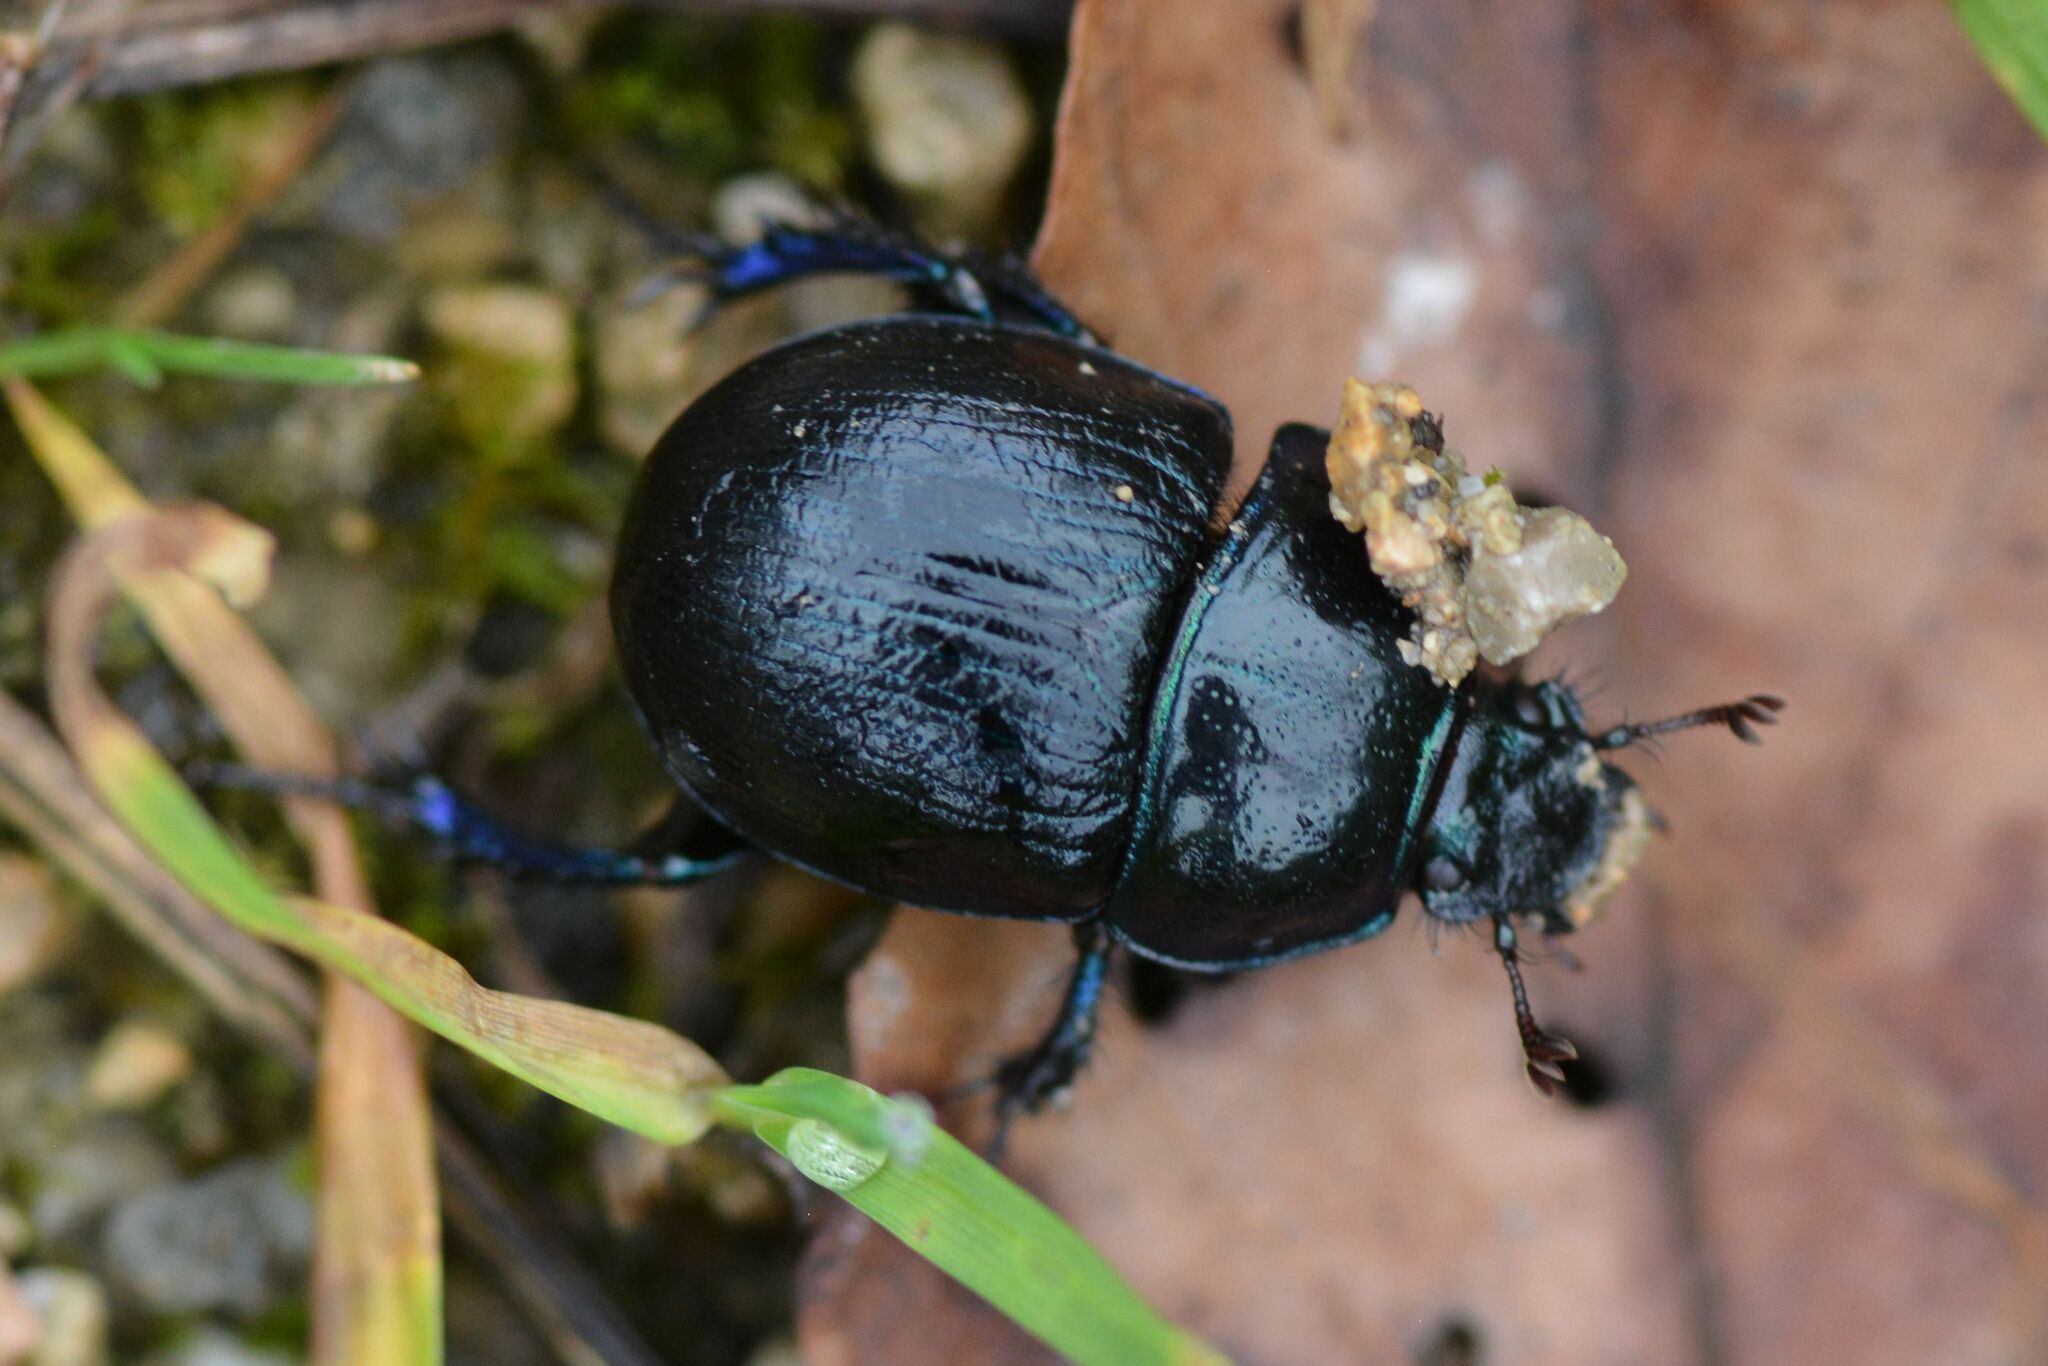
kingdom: Animalia
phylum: Arthropoda
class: Insecta
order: Coleoptera
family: Geotrupidae
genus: Anoplotrupes
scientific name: Anoplotrupes stercorosus
